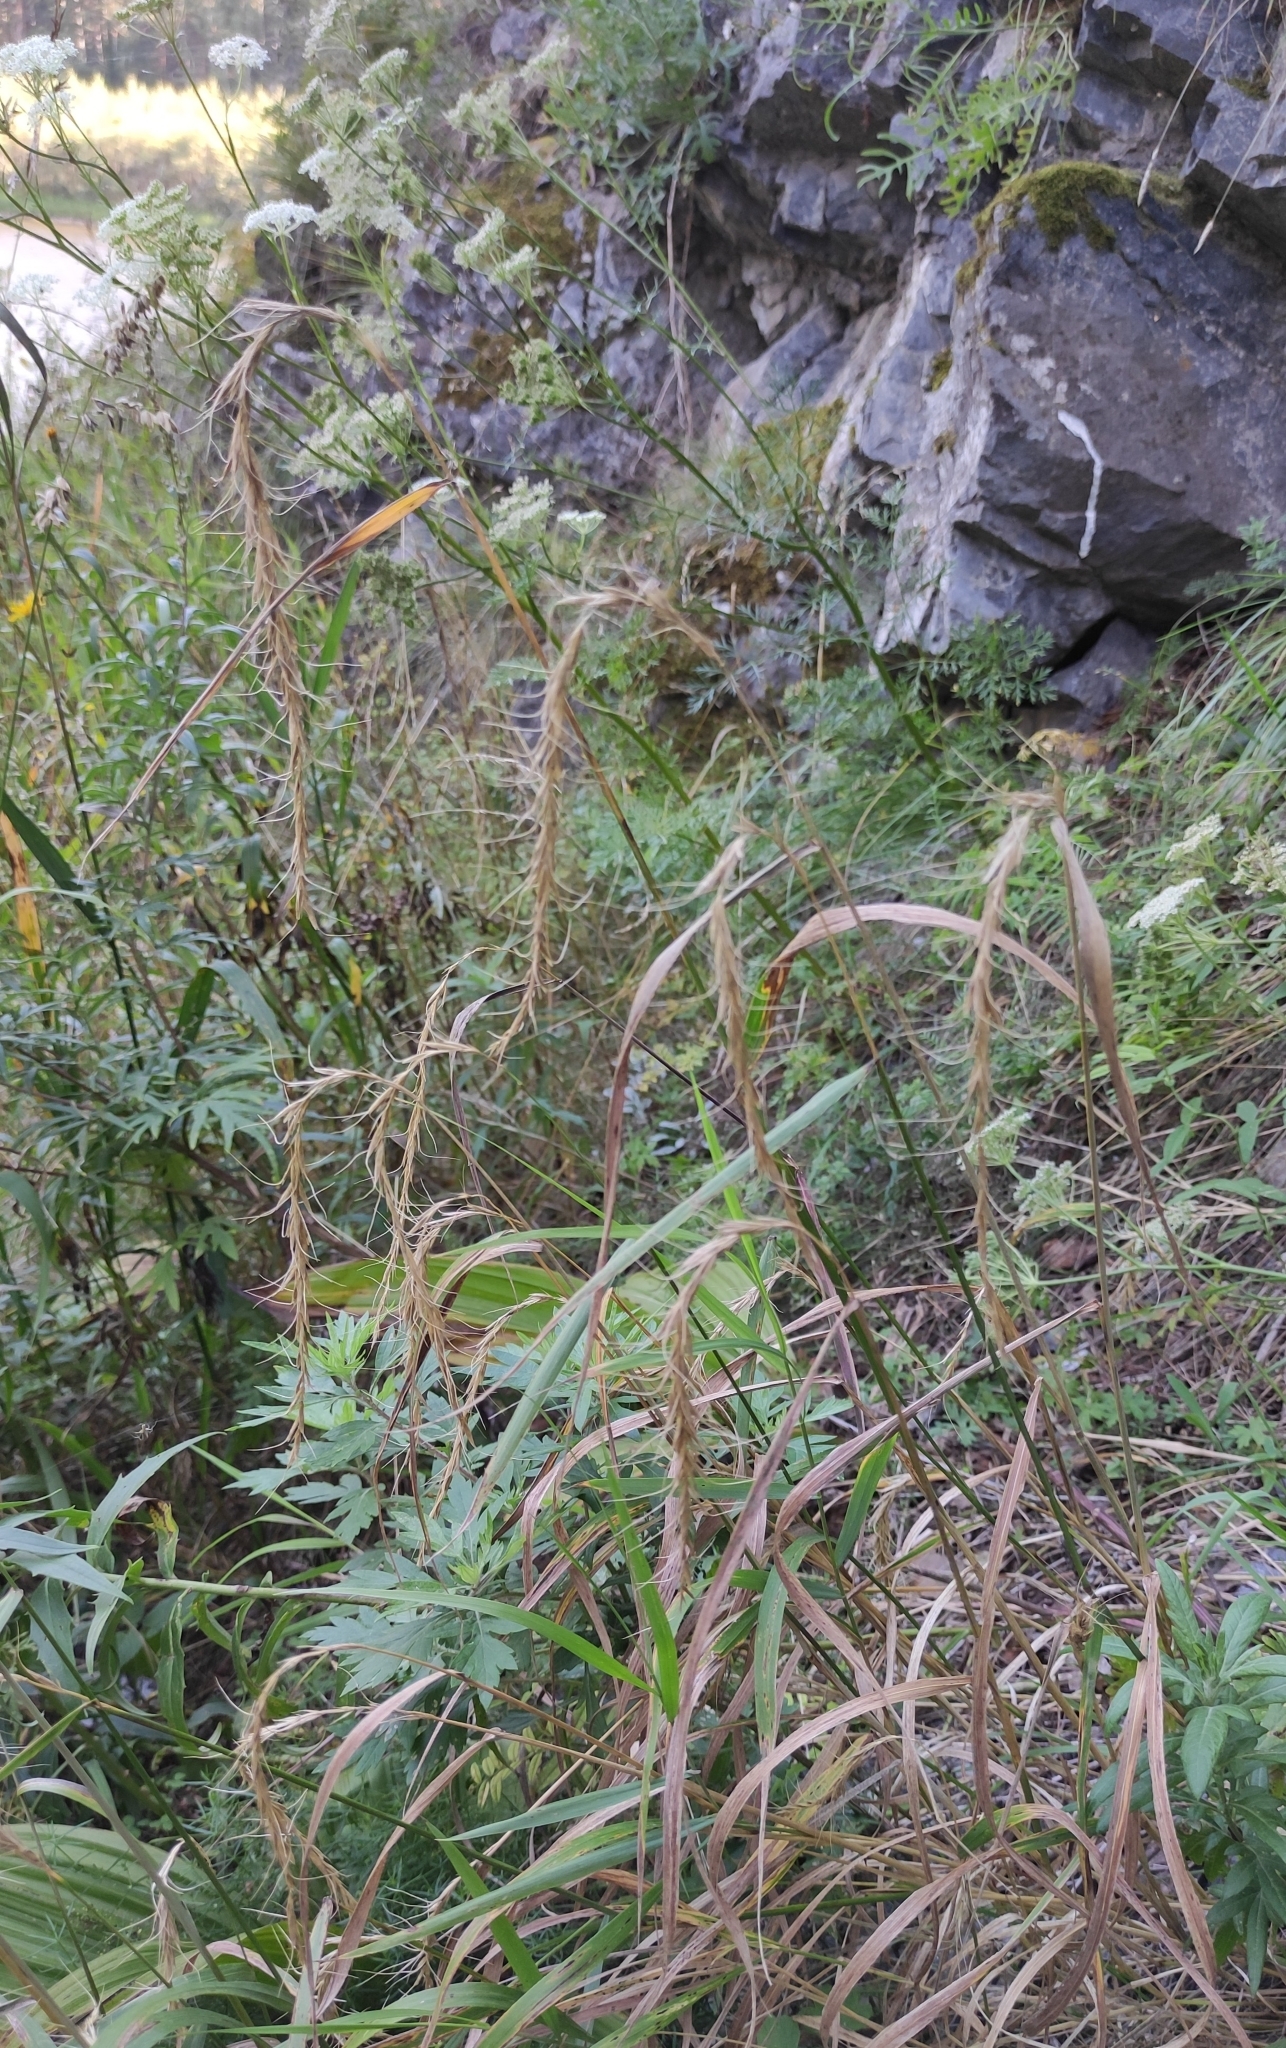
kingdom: Plantae
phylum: Tracheophyta
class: Liliopsida
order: Poales
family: Poaceae
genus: Elymus
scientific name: Elymus sibiricus
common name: Siberian wildrye
